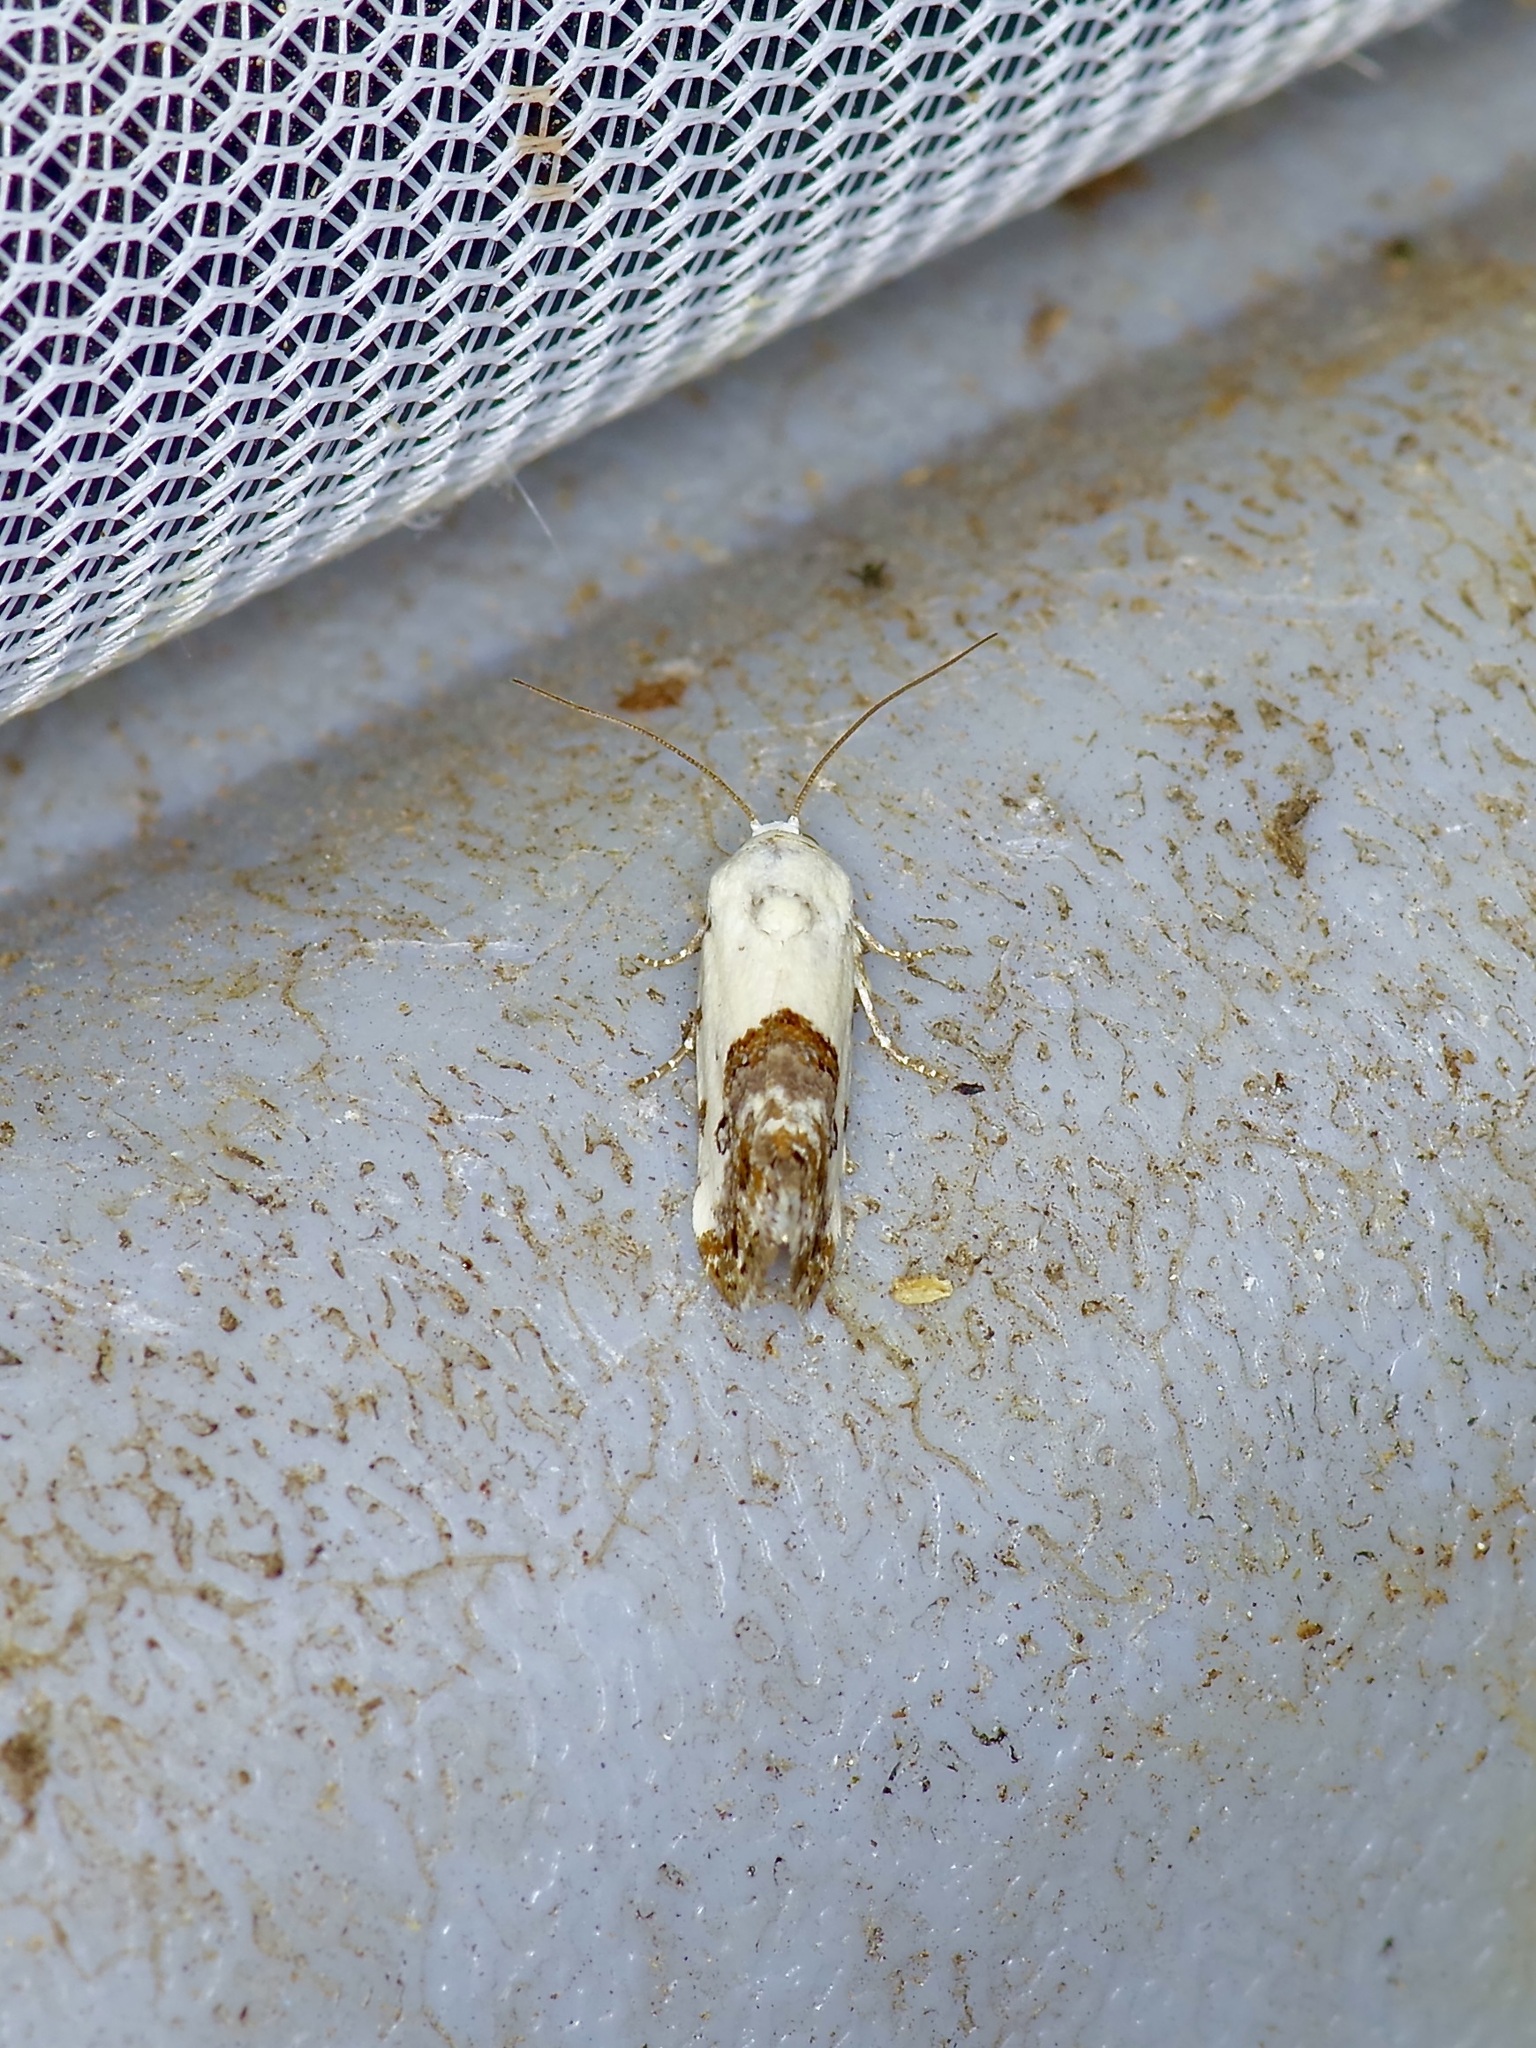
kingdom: Animalia
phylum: Arthropoda
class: Insecta
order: Lepidoptera
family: Noctuidae
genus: Acontia
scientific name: Acontia phecolisca
